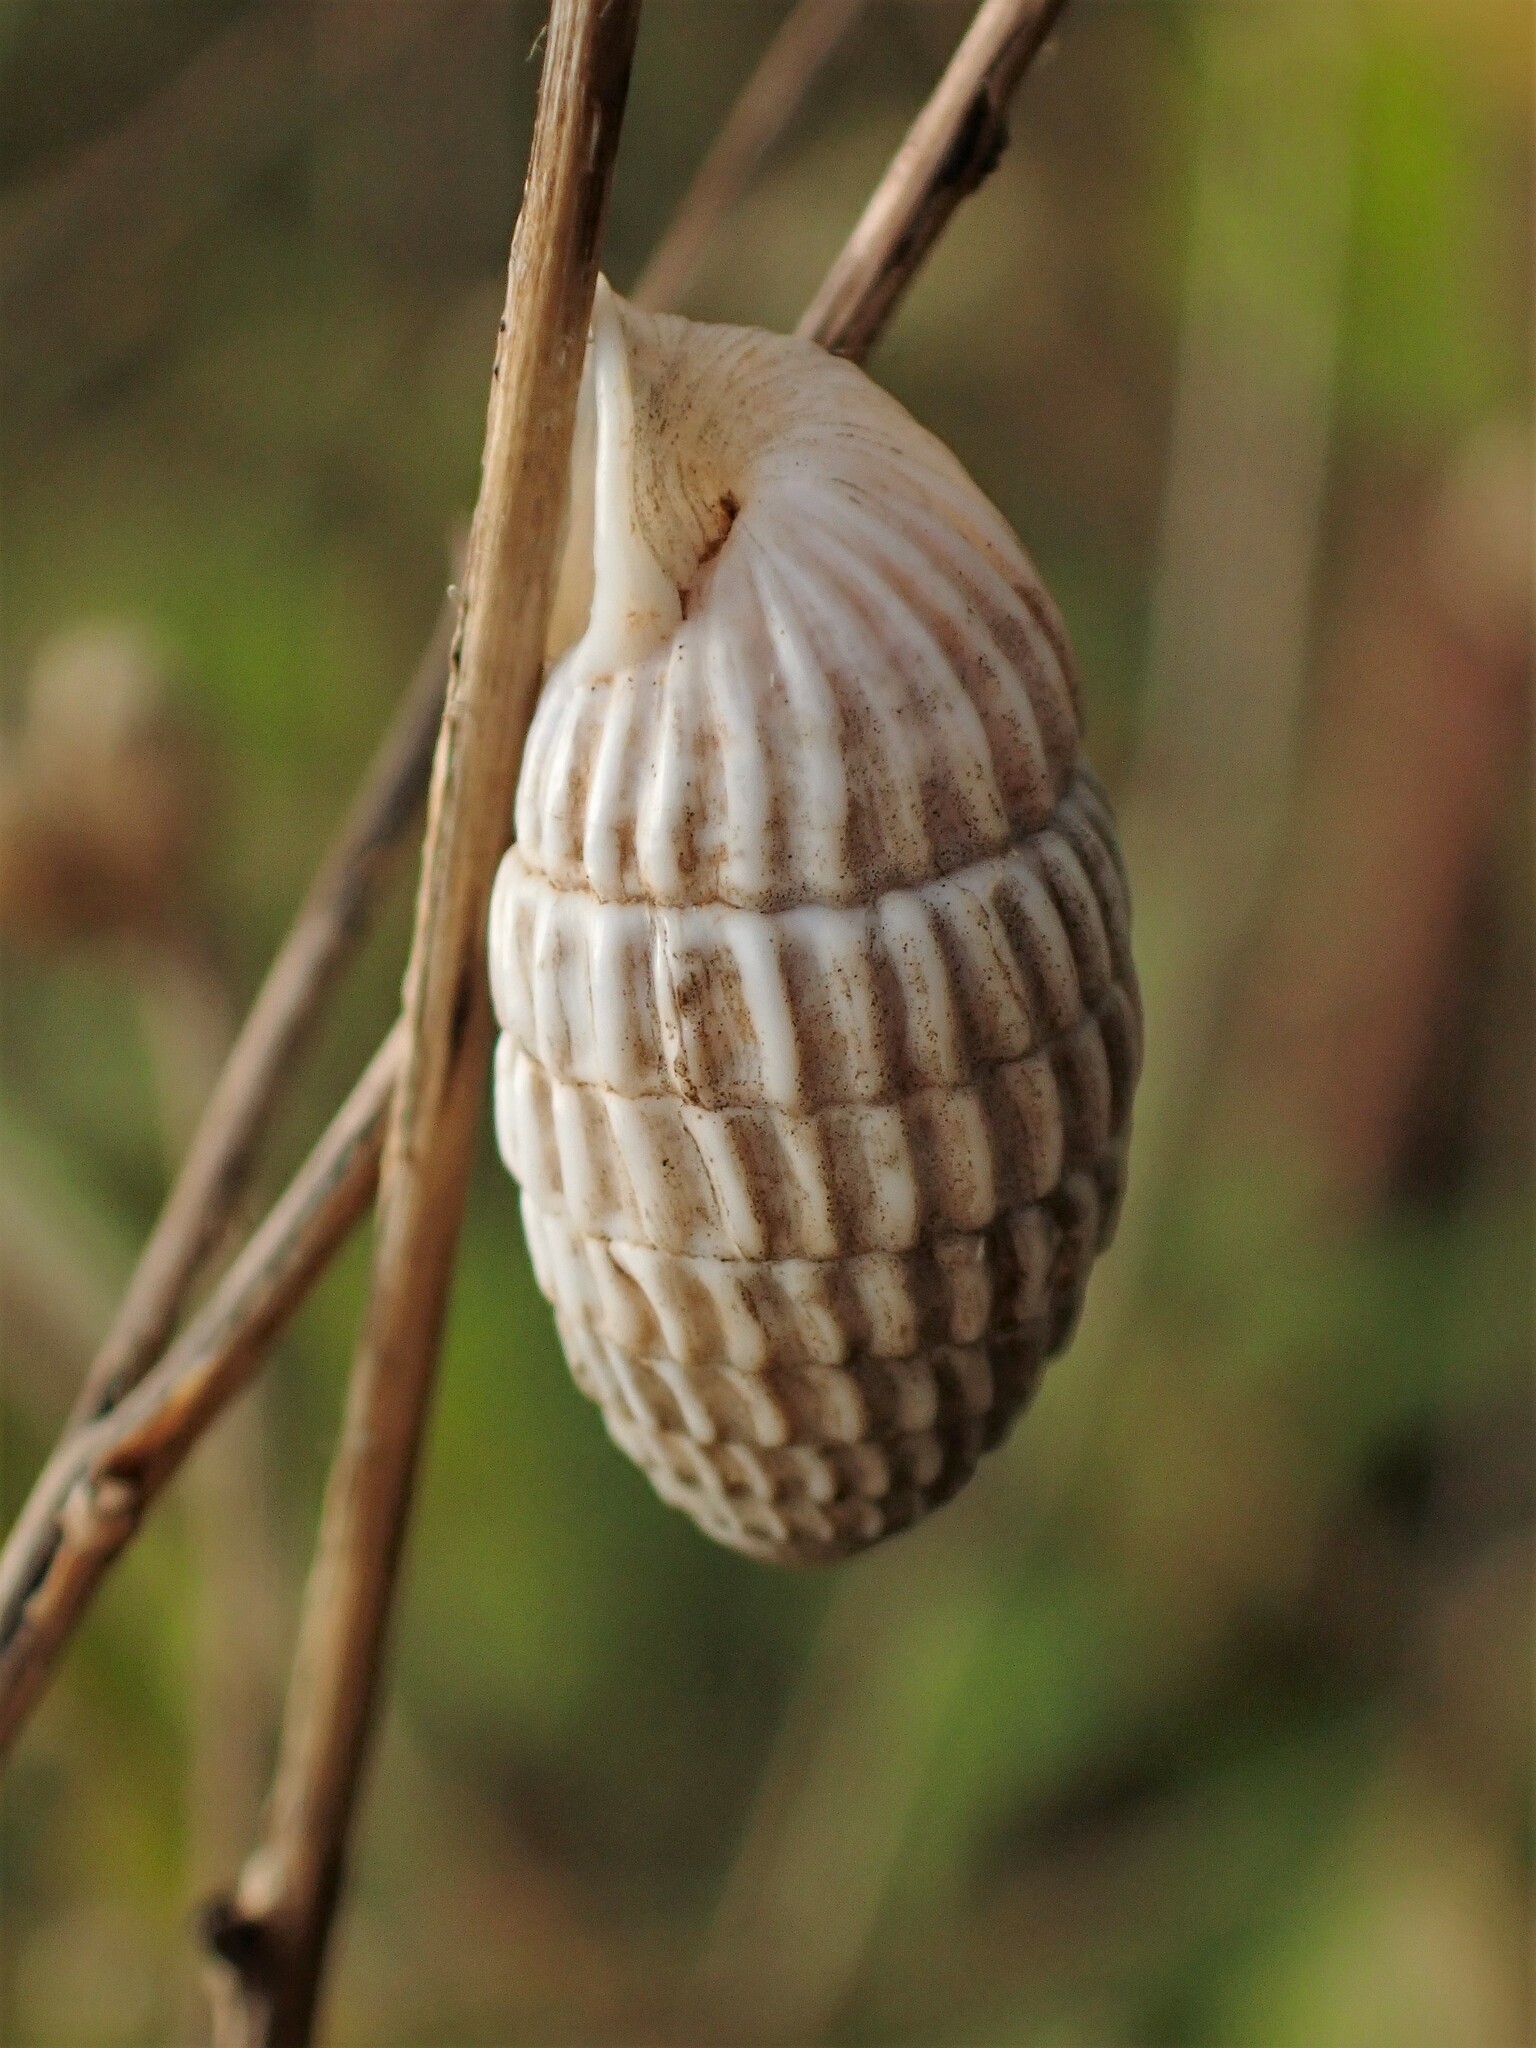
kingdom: Animalia
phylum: Mollusca
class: Gastropoda
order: Stylommatophora
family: Cerionidae
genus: Cerion
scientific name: Cerion uva
